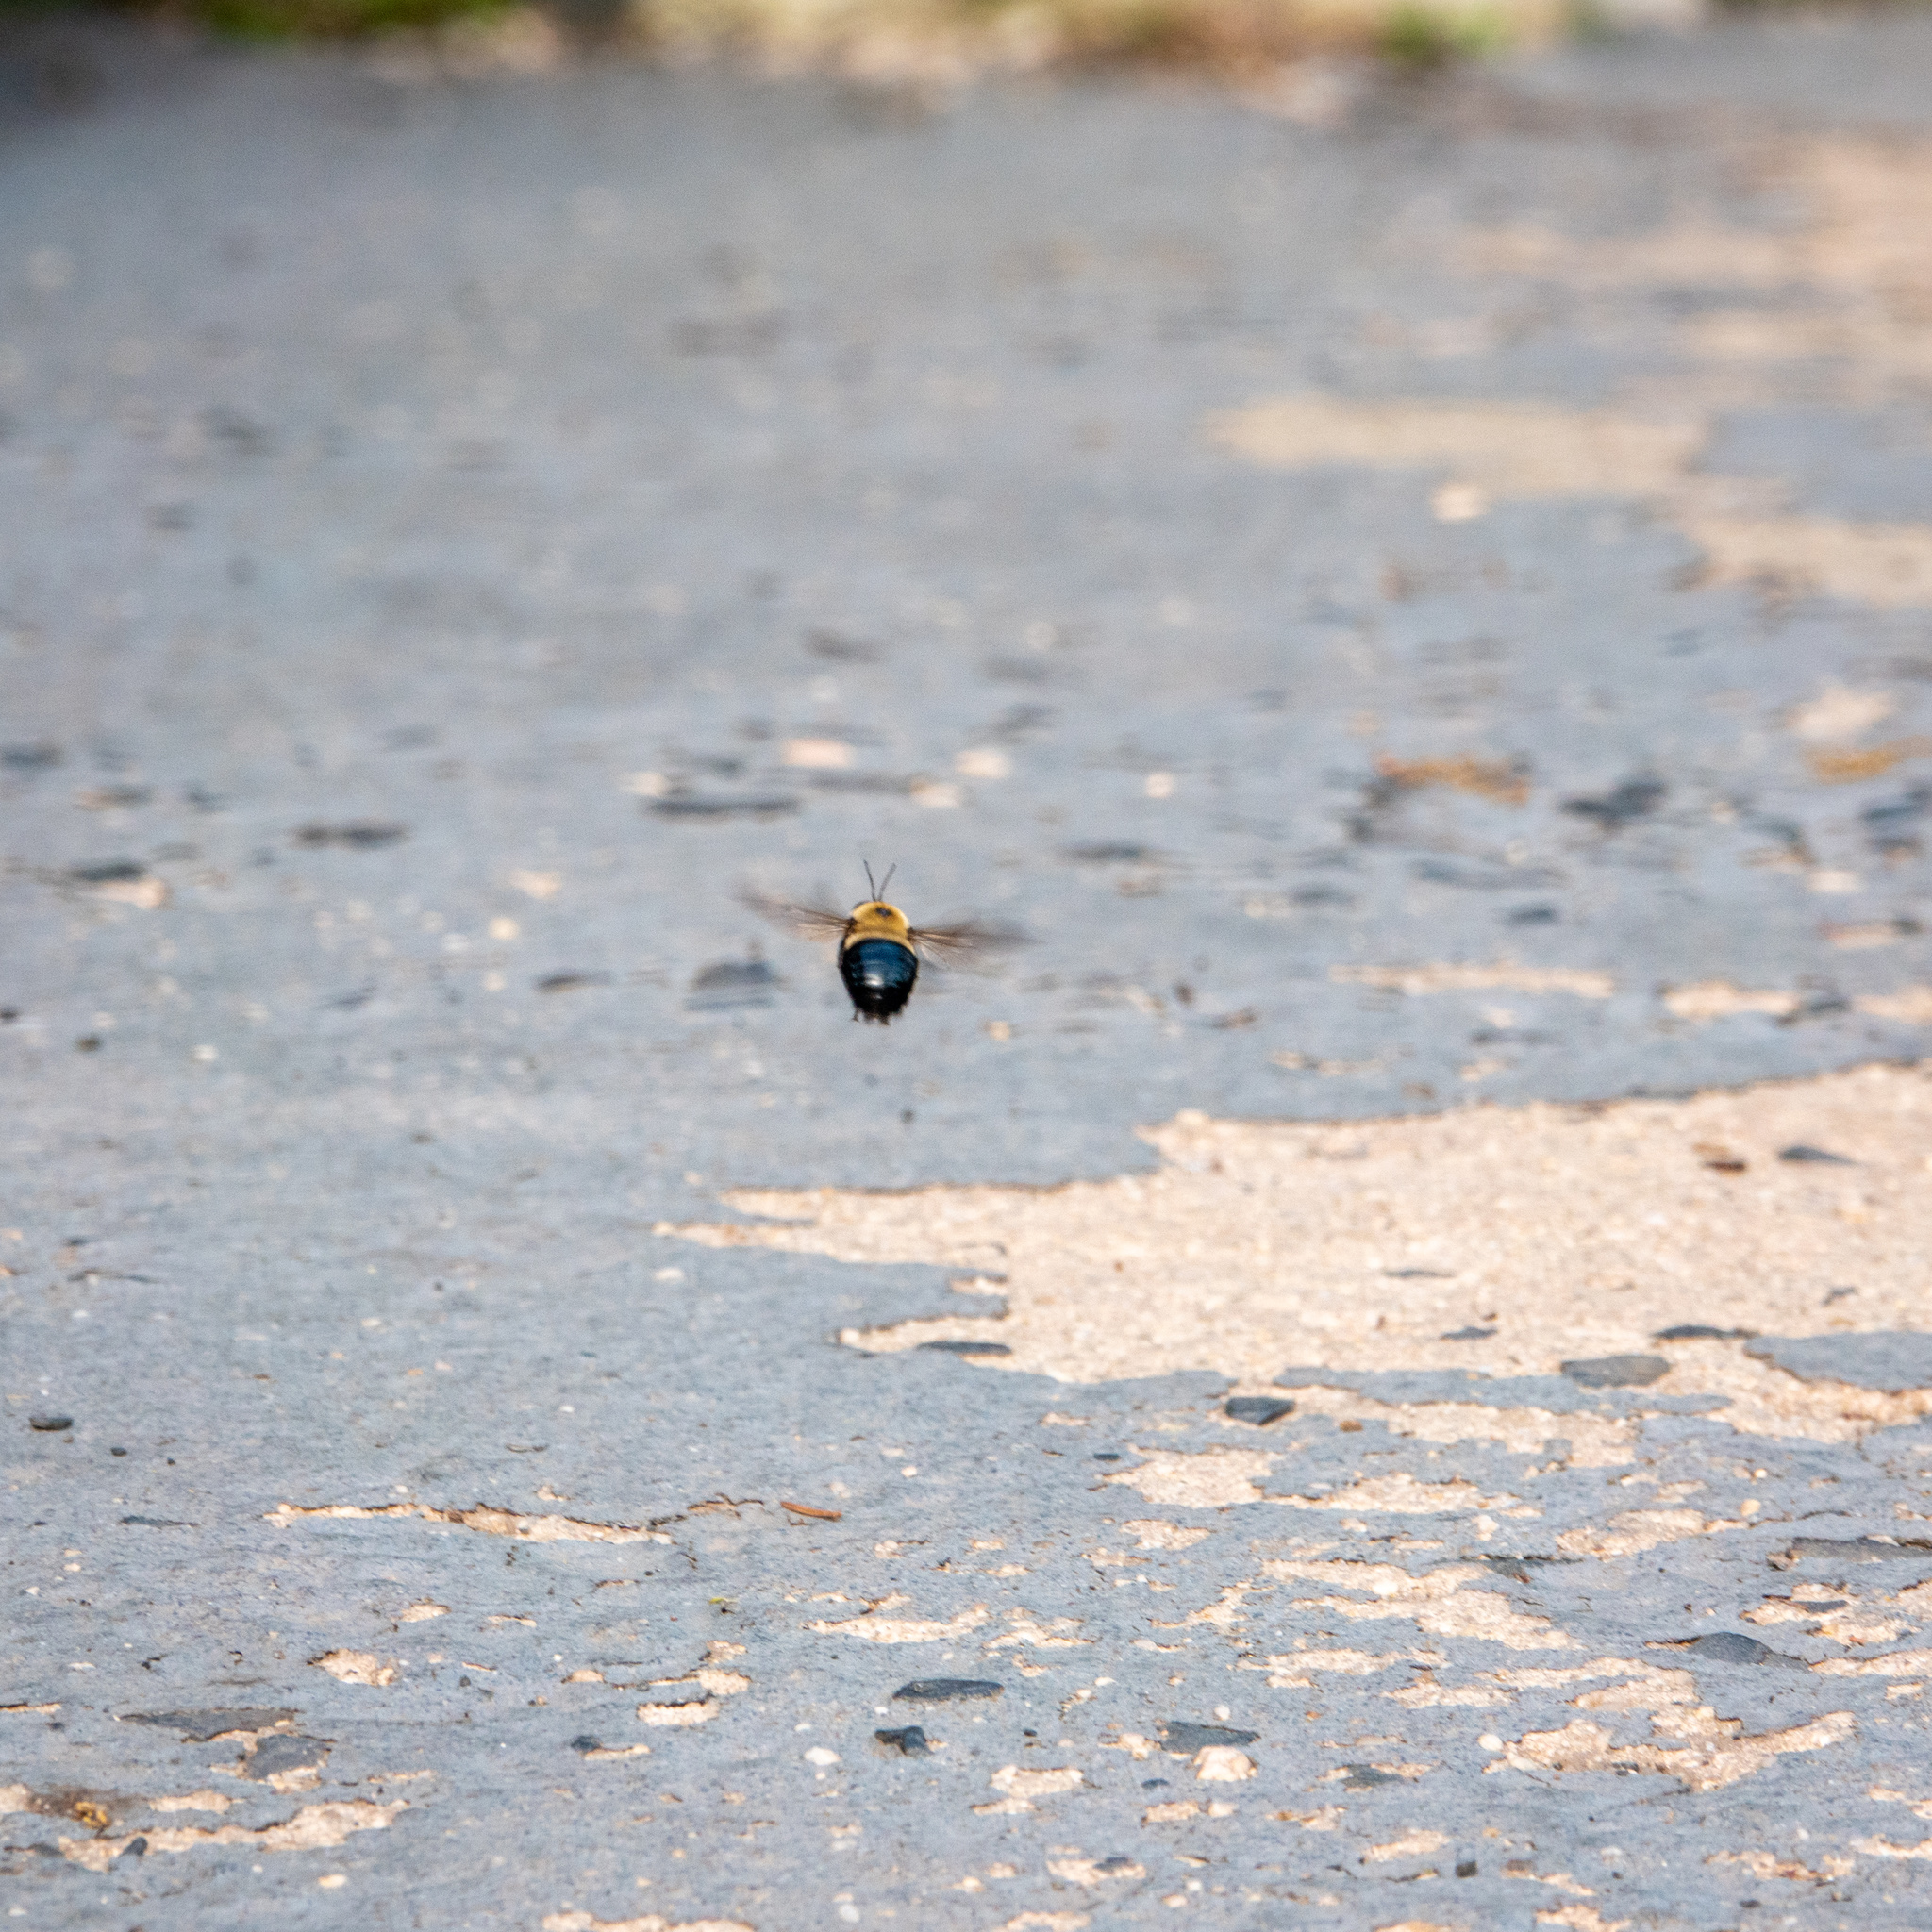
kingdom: Animalia
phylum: Arthropoda
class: Insecta
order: Hymenoptera
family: Apidae
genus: Xylocopa
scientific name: Xylocopa virginica
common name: Carpenter bee
